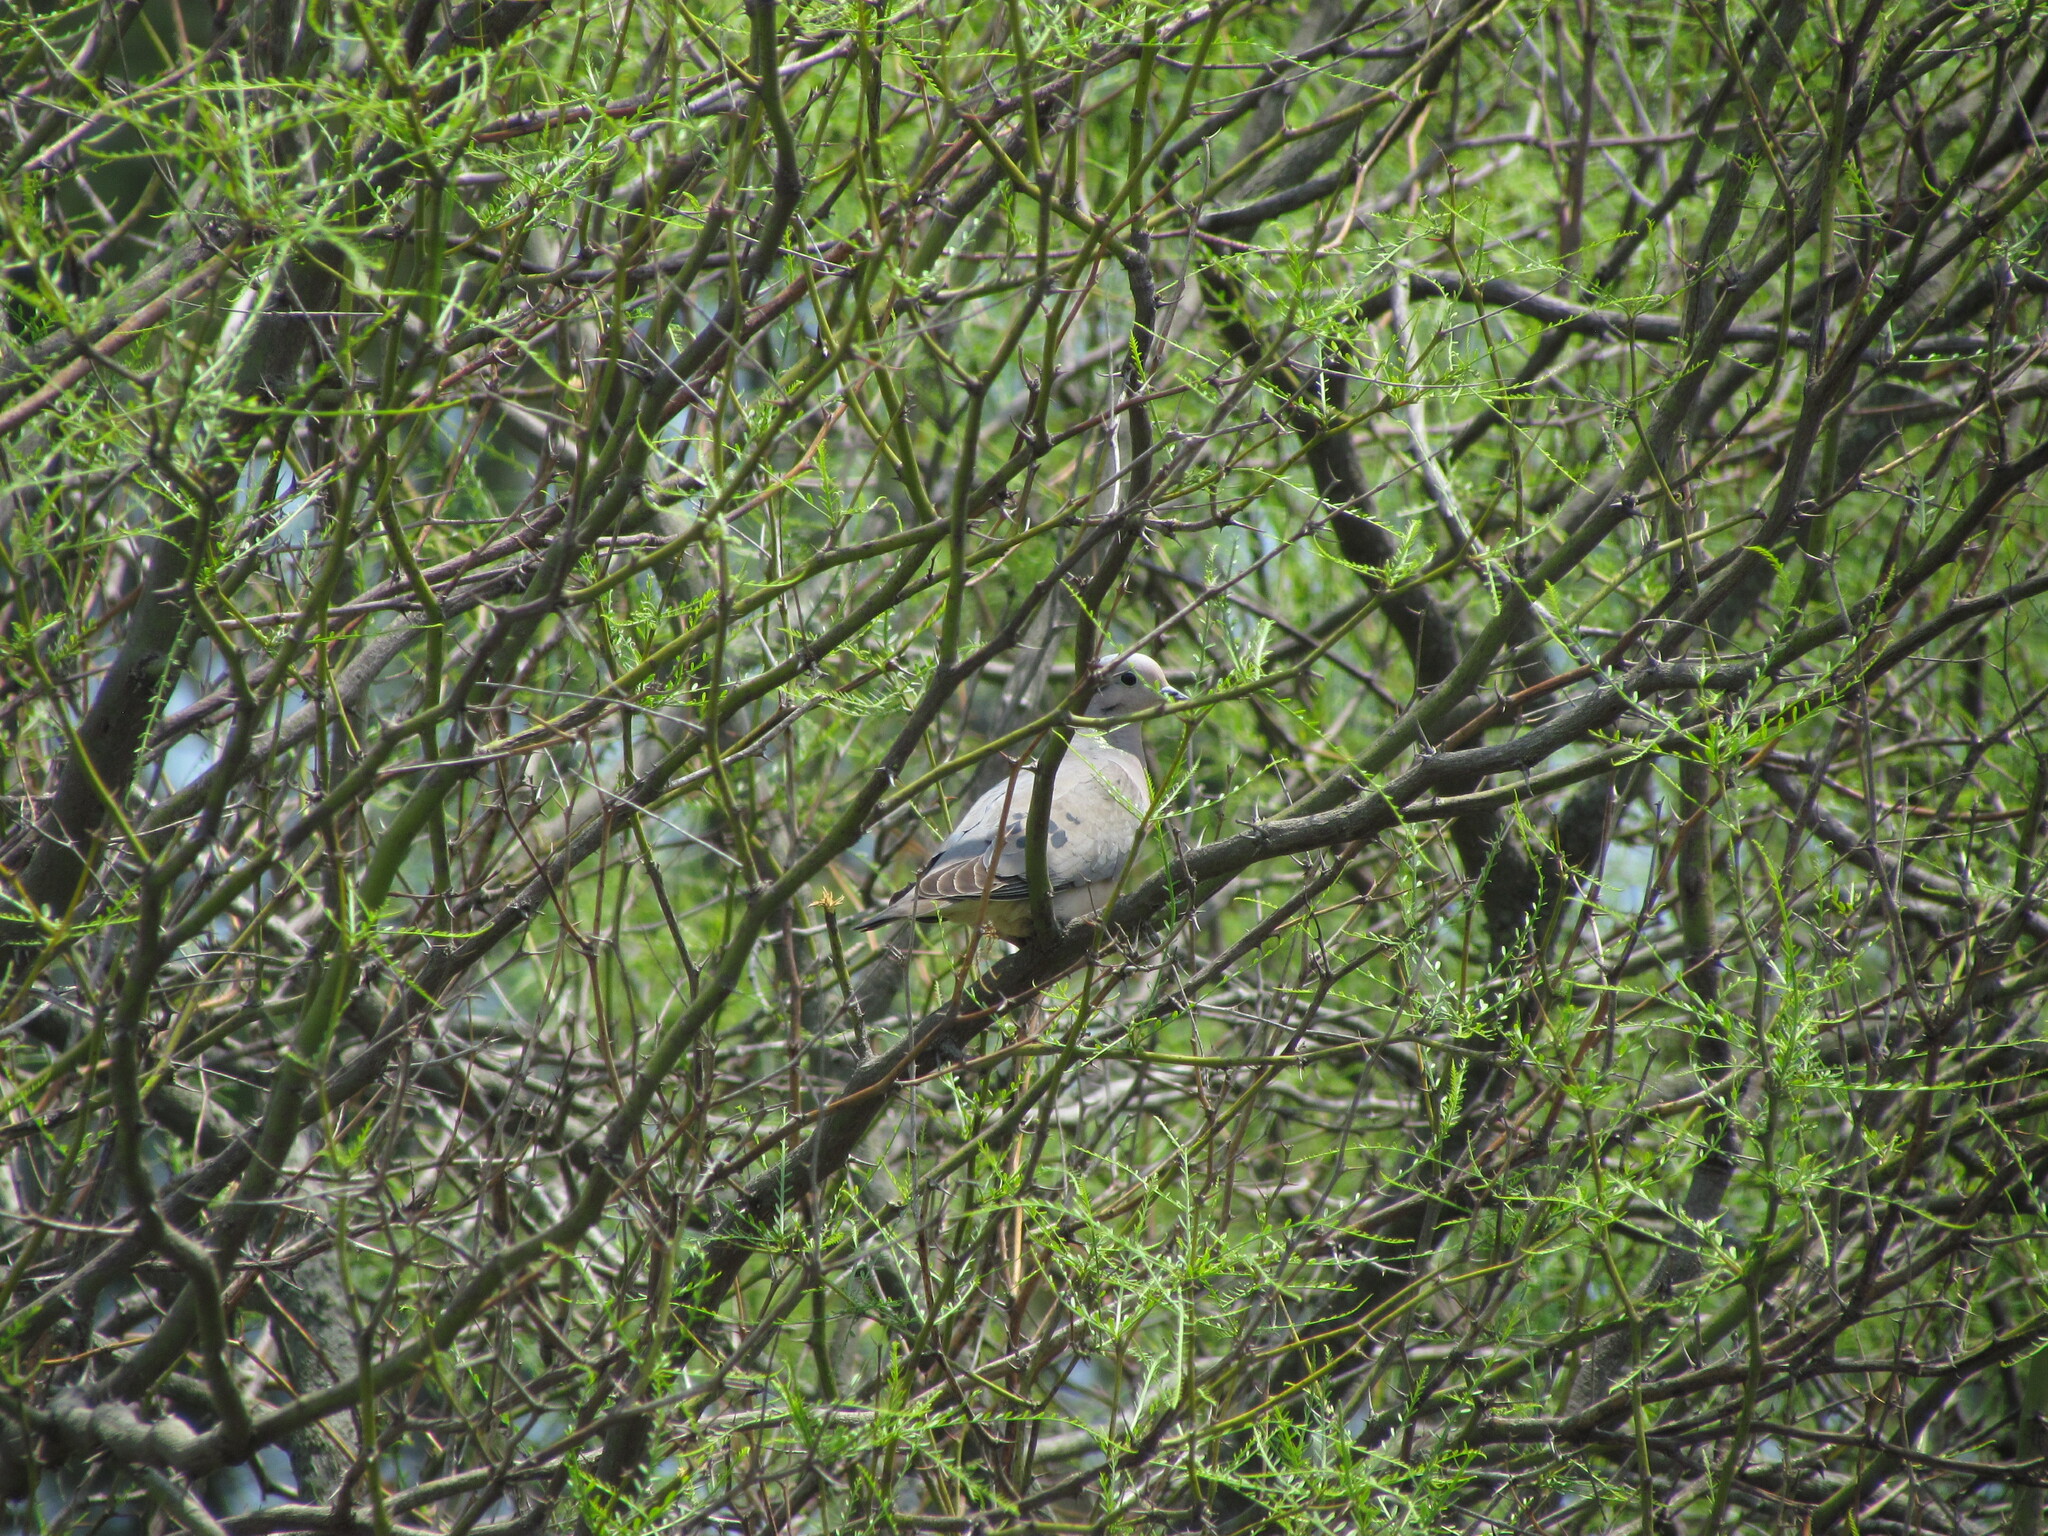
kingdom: Animalia
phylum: Chordata
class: Aves
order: Columbiformes
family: Columbidae
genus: Zenaida
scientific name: Zenaida auriculata
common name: Eared dove
